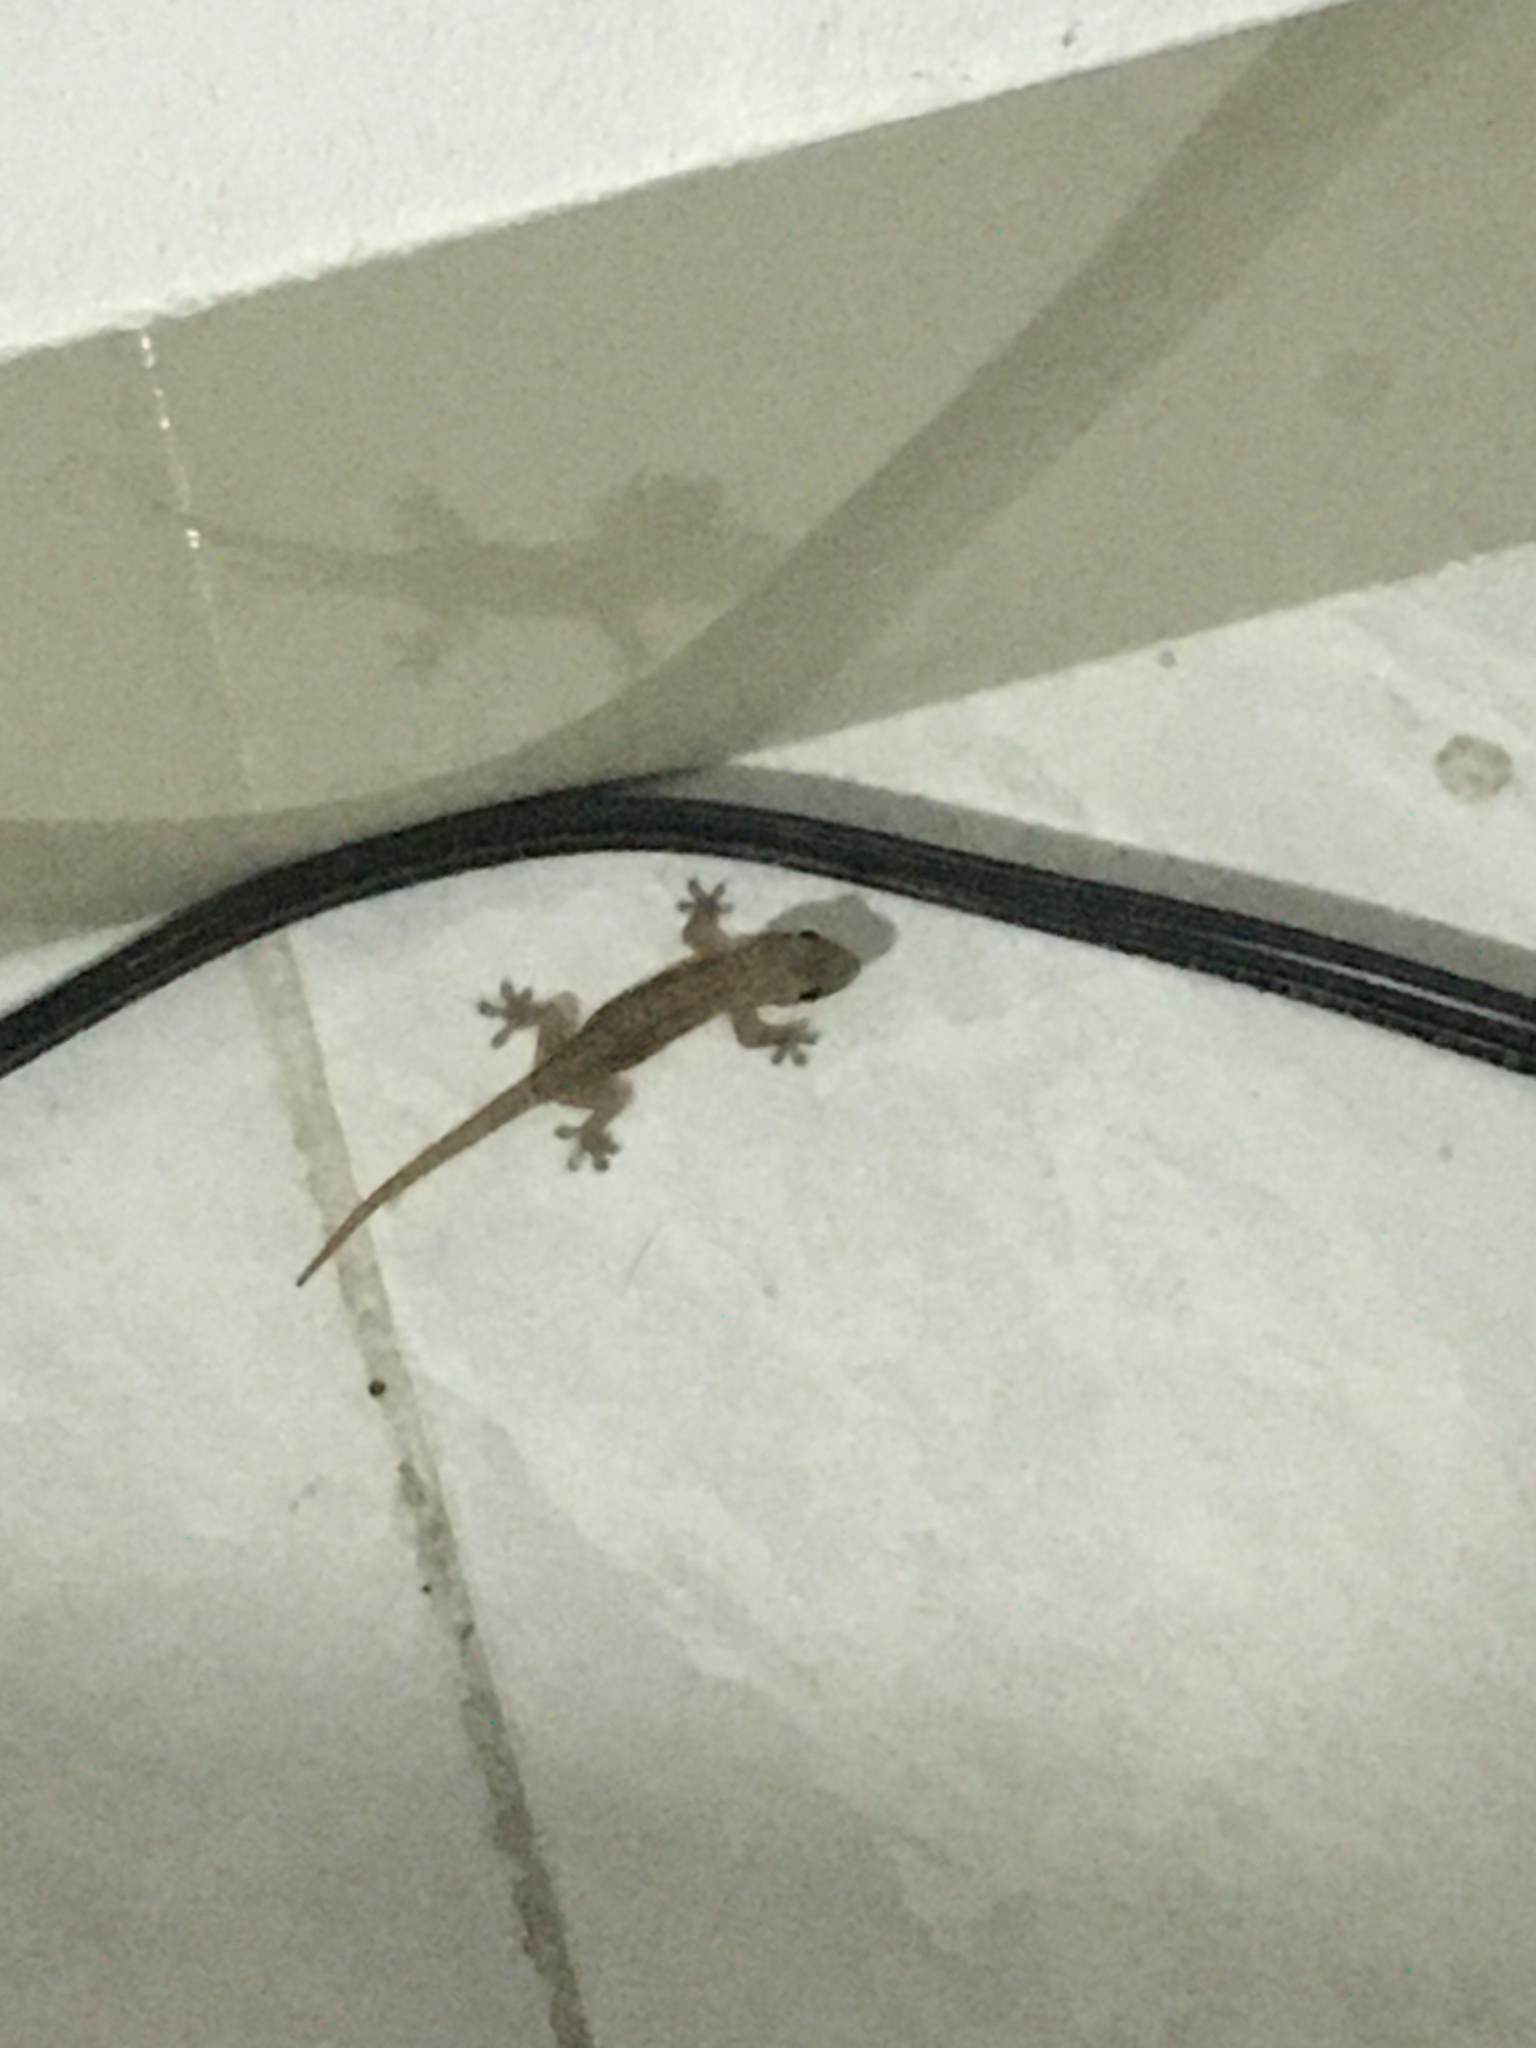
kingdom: Animalia
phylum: Chordata
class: Squamata
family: Gekkonidae
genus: Hemidactylus
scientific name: Hemidactylus frenatus
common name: Common house gecko
